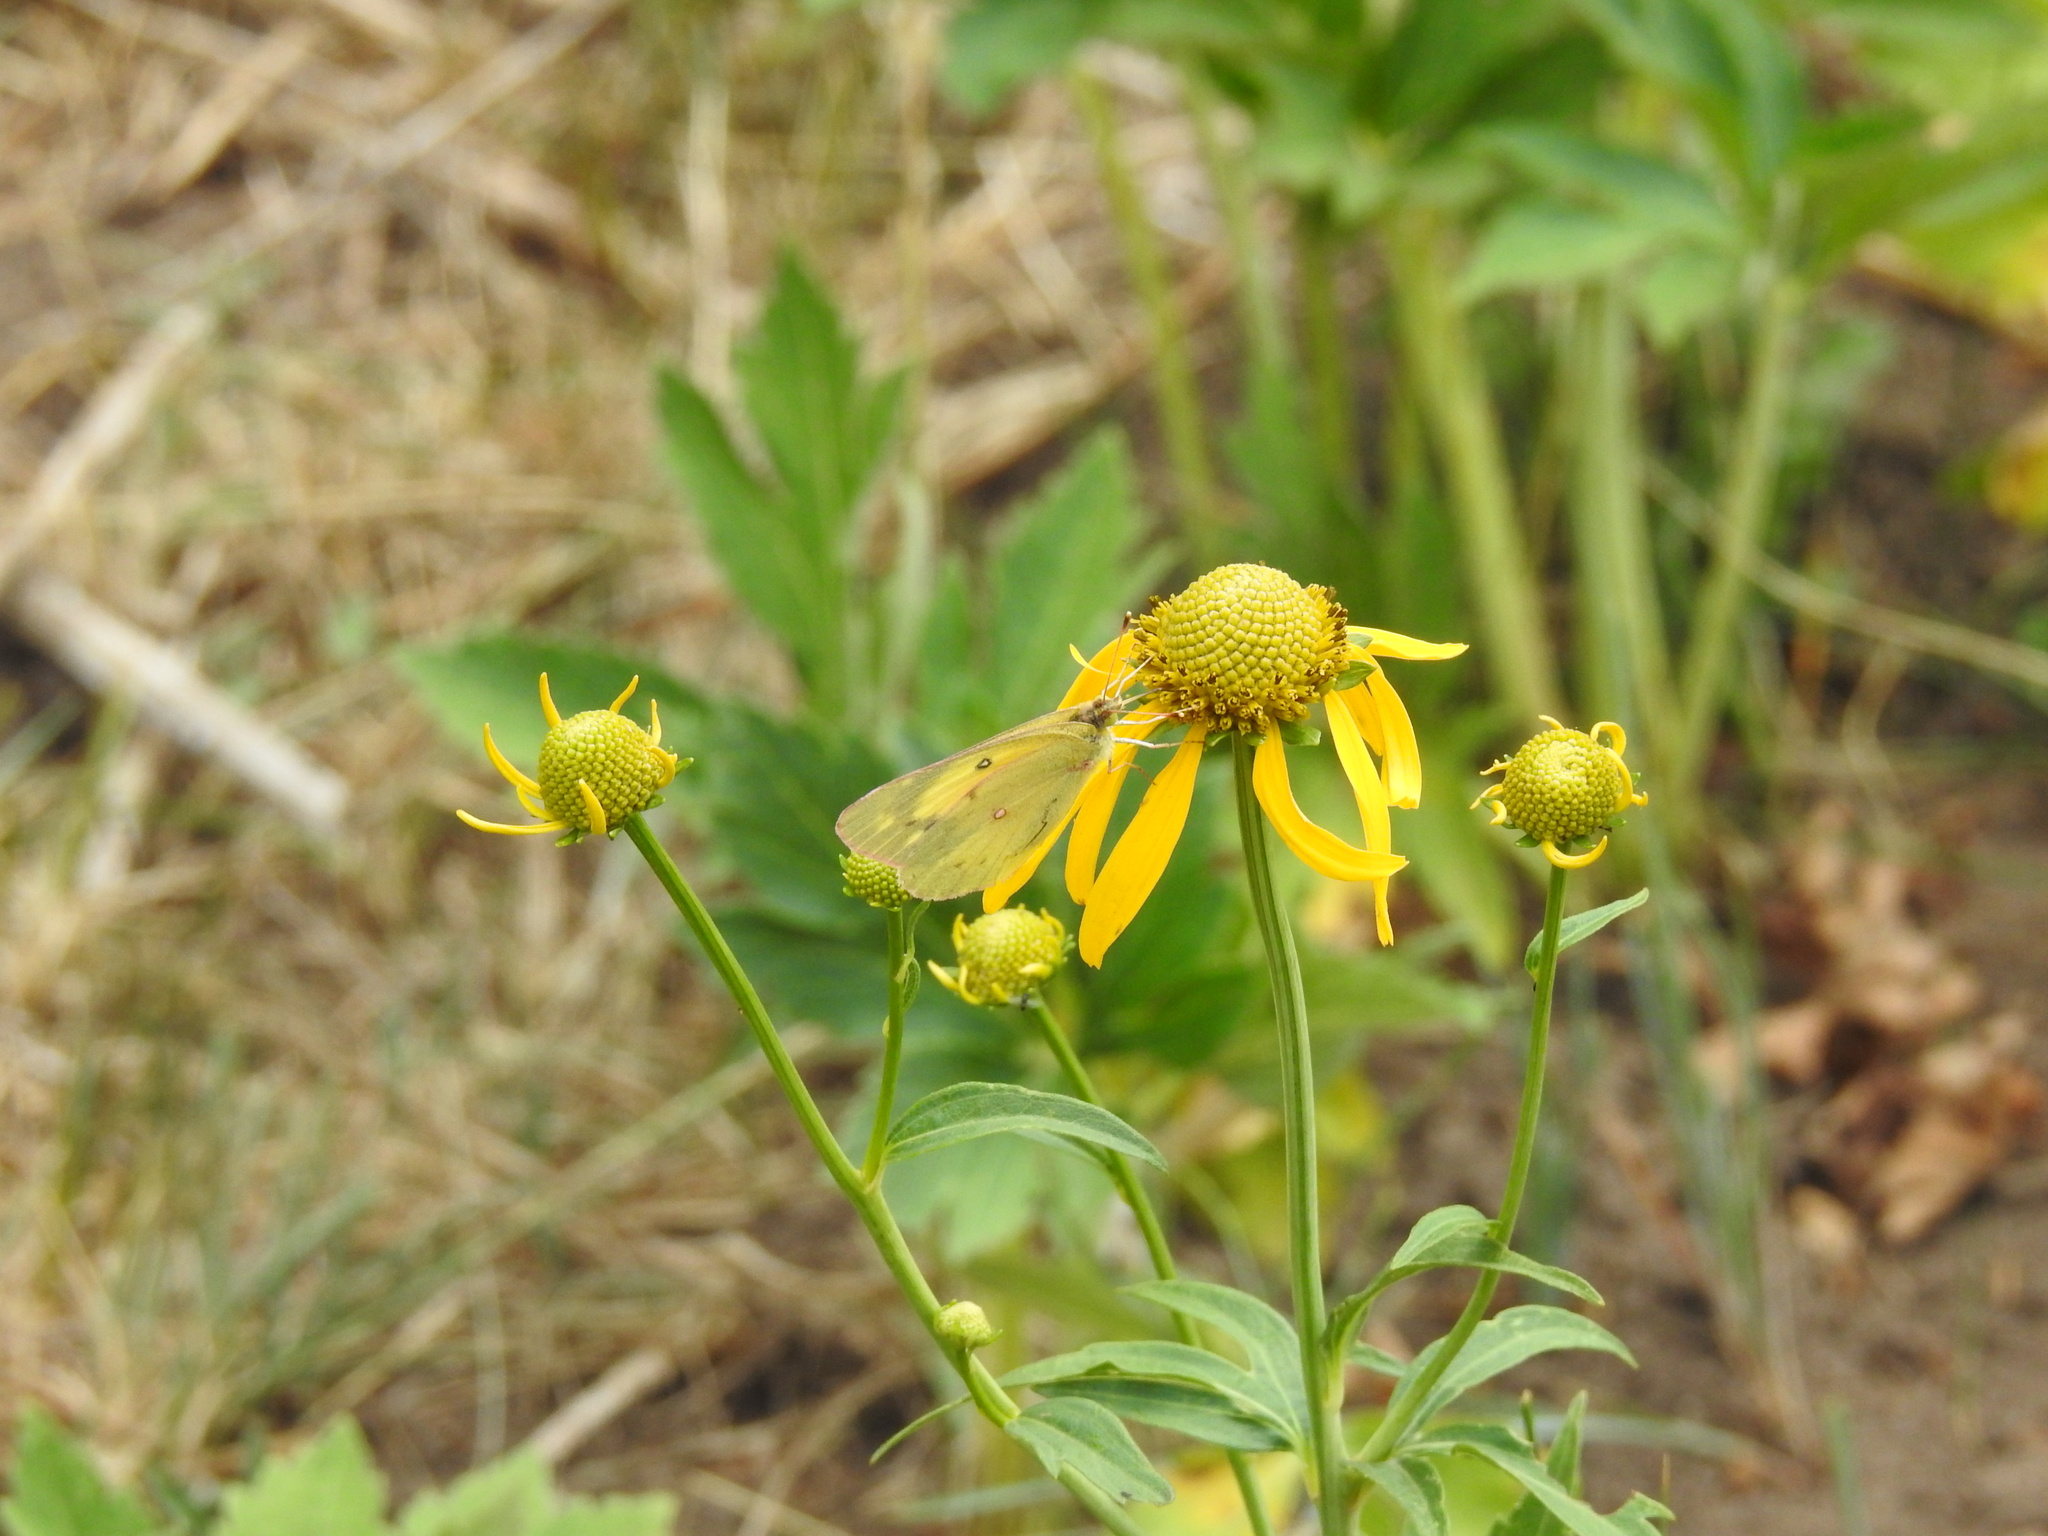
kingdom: Animalia
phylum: Arthropoda
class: Insecta
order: Lepidoptera
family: Pieridae
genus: Colias
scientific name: Colias eurytheme
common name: Alfalfa butterfly
